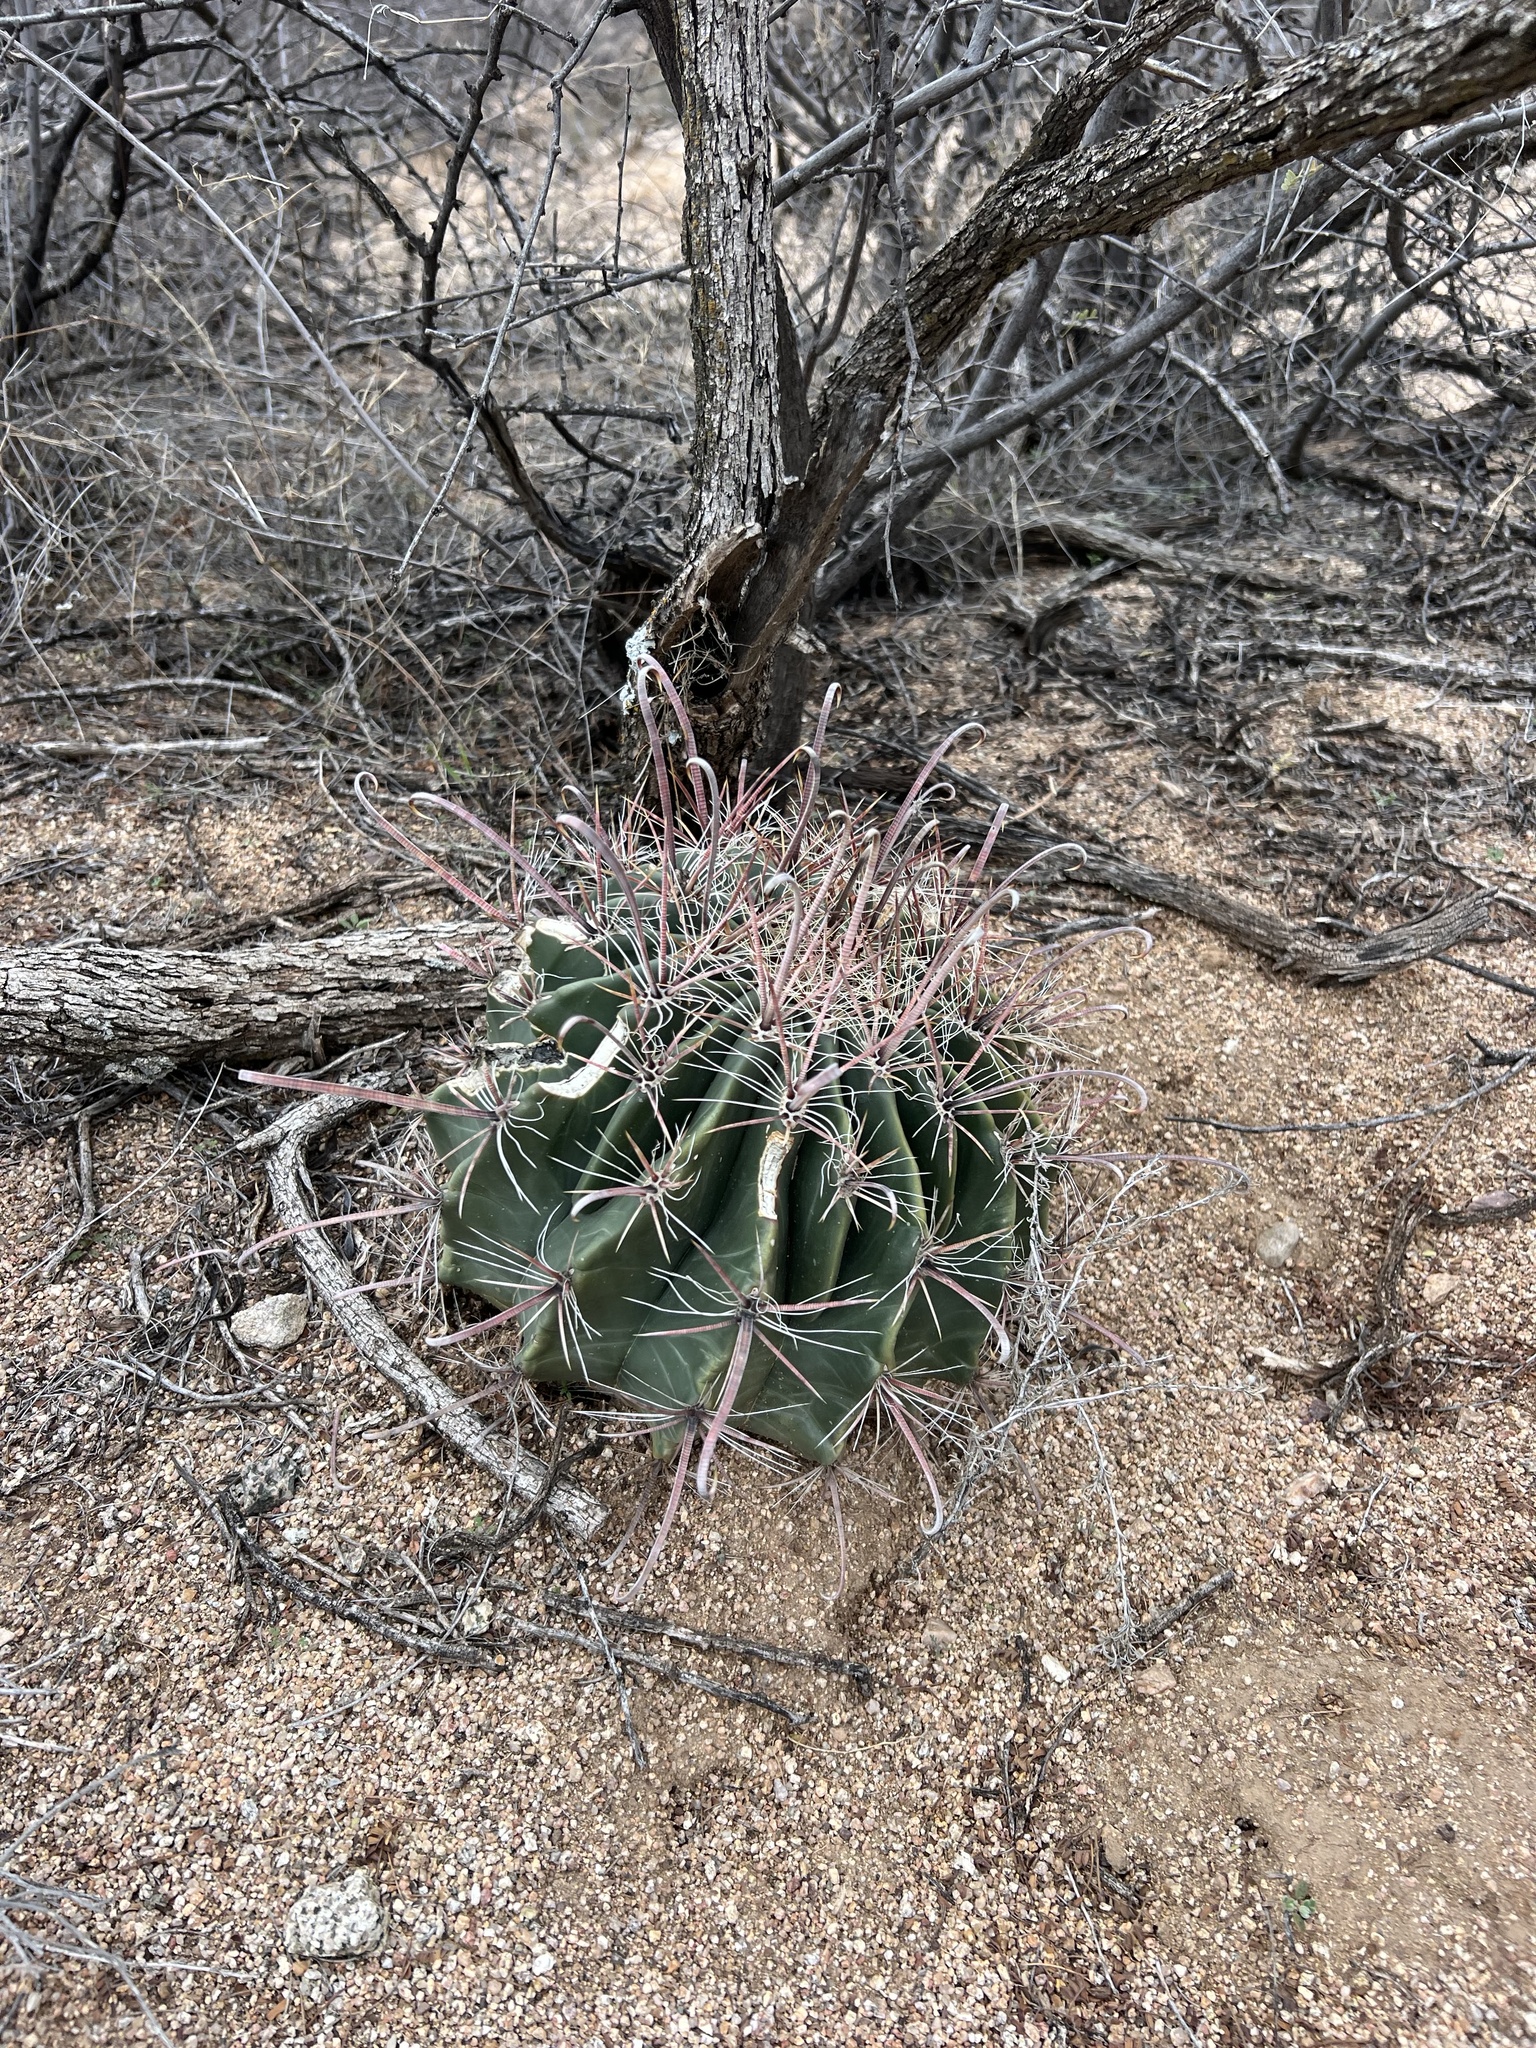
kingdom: Plantae
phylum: Tracheophyta
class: Magnoliopsida
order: Caryophyllales
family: Cactaceae
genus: Ferocactus
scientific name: Ferocactus wislizeni
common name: Candy barrel cactus
